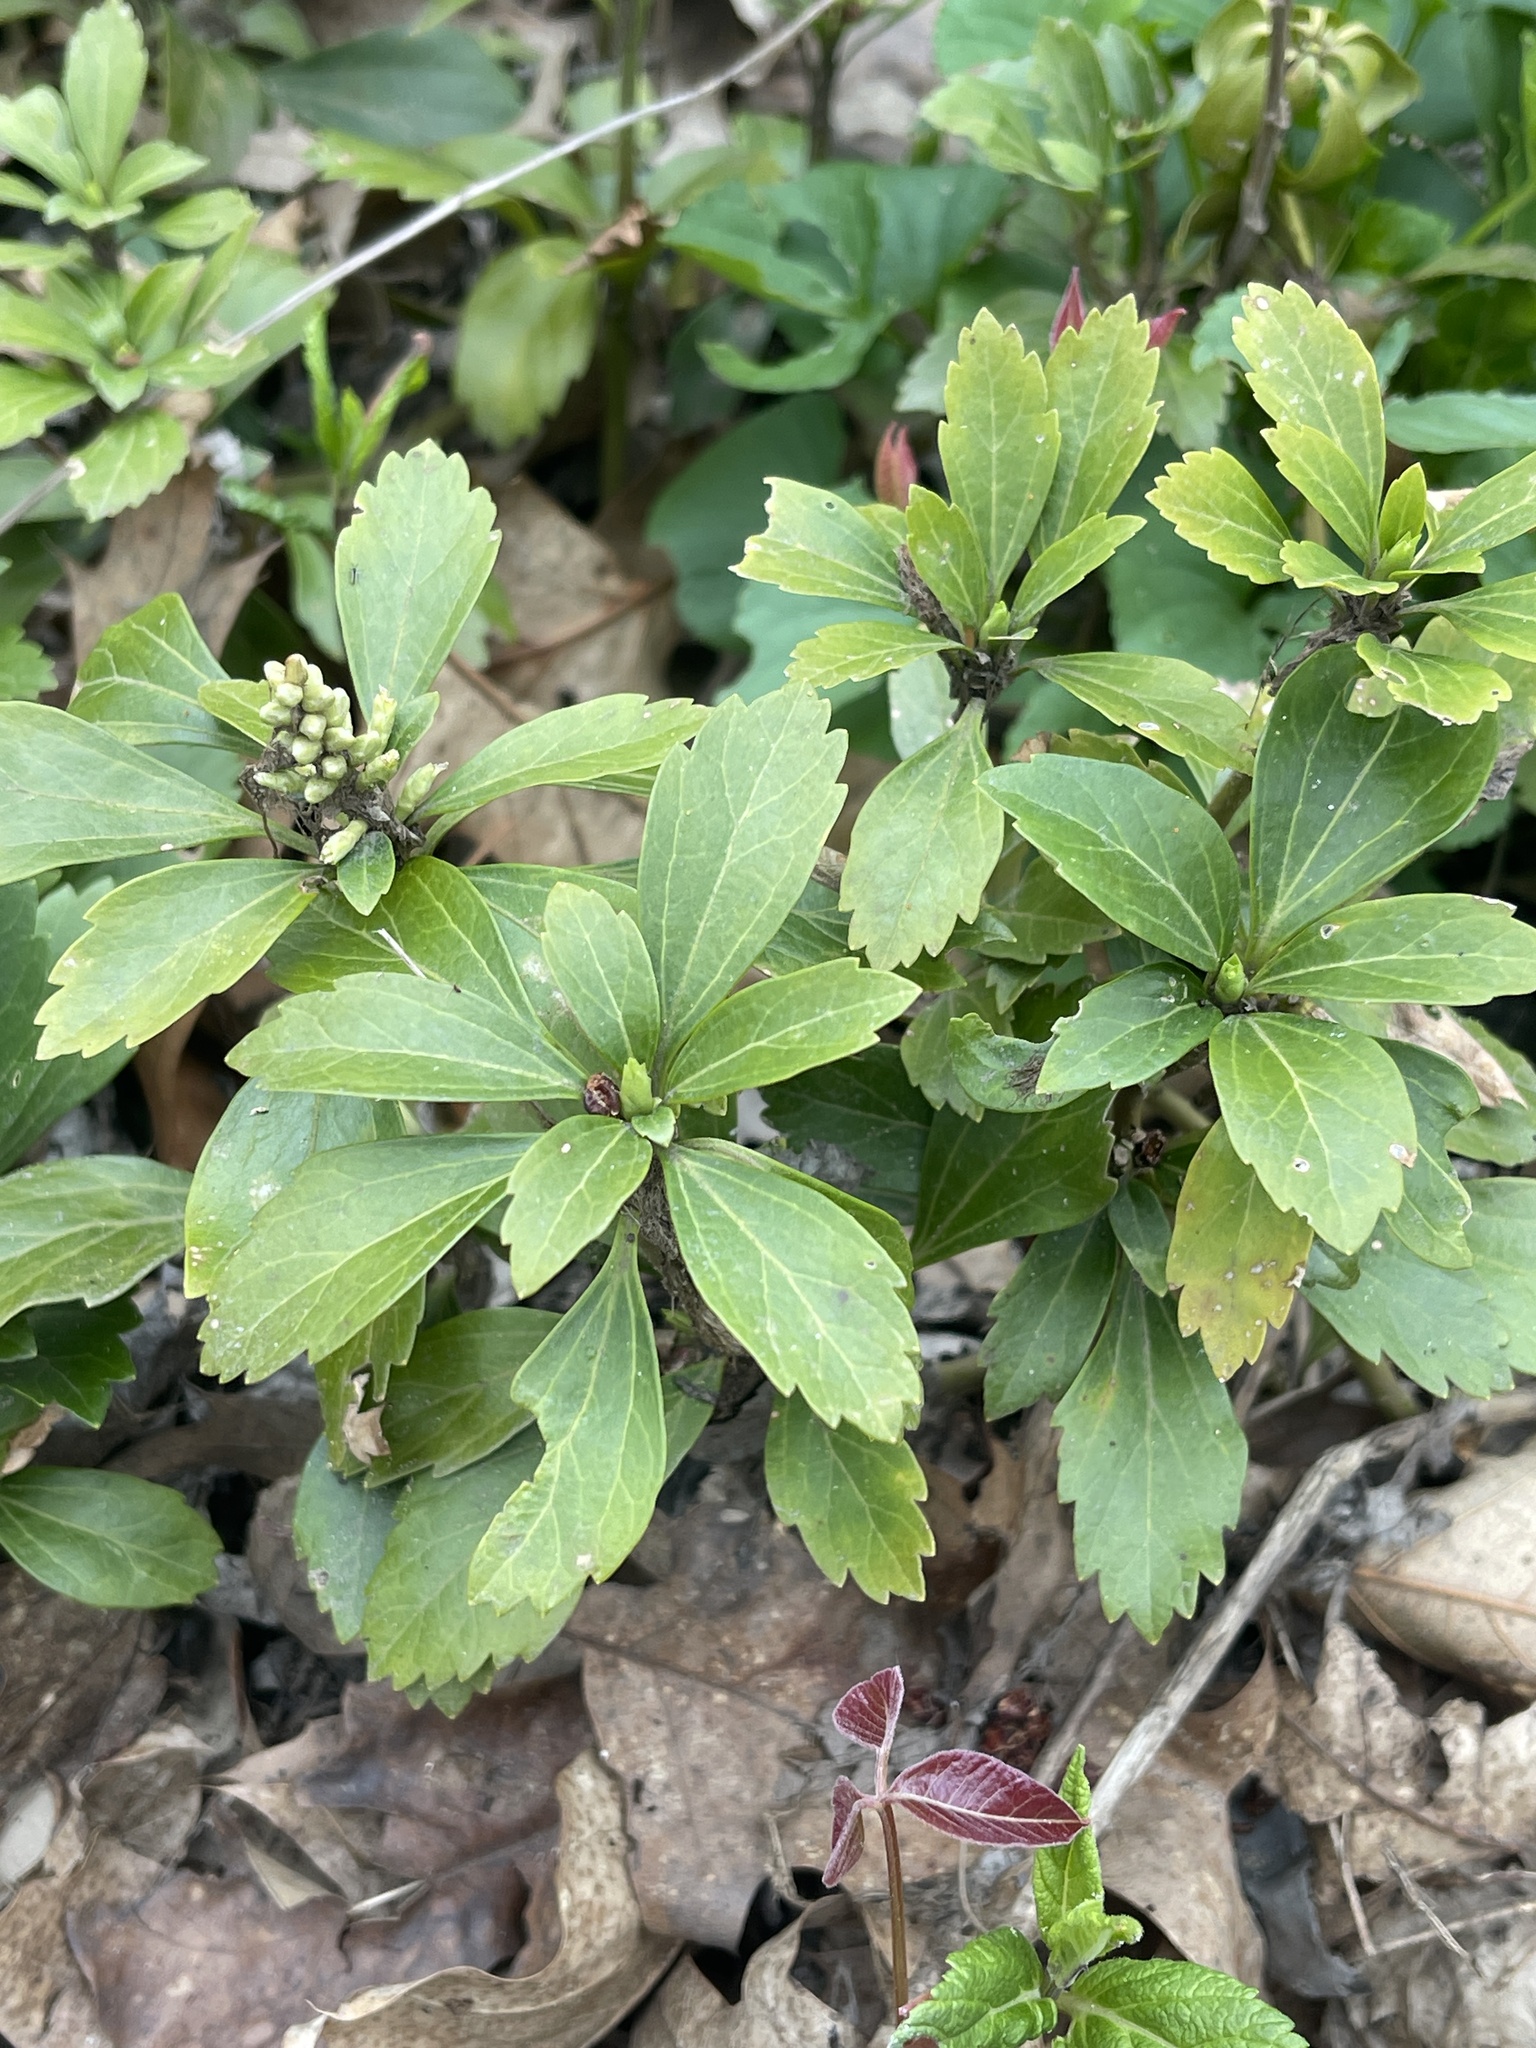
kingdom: Plantae
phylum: Tracheophyta
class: Magnoliopsida
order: Buxales
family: Buxaceae
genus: Pachysandra
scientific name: Pachysandra terminalis
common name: Japanese pachysandra
